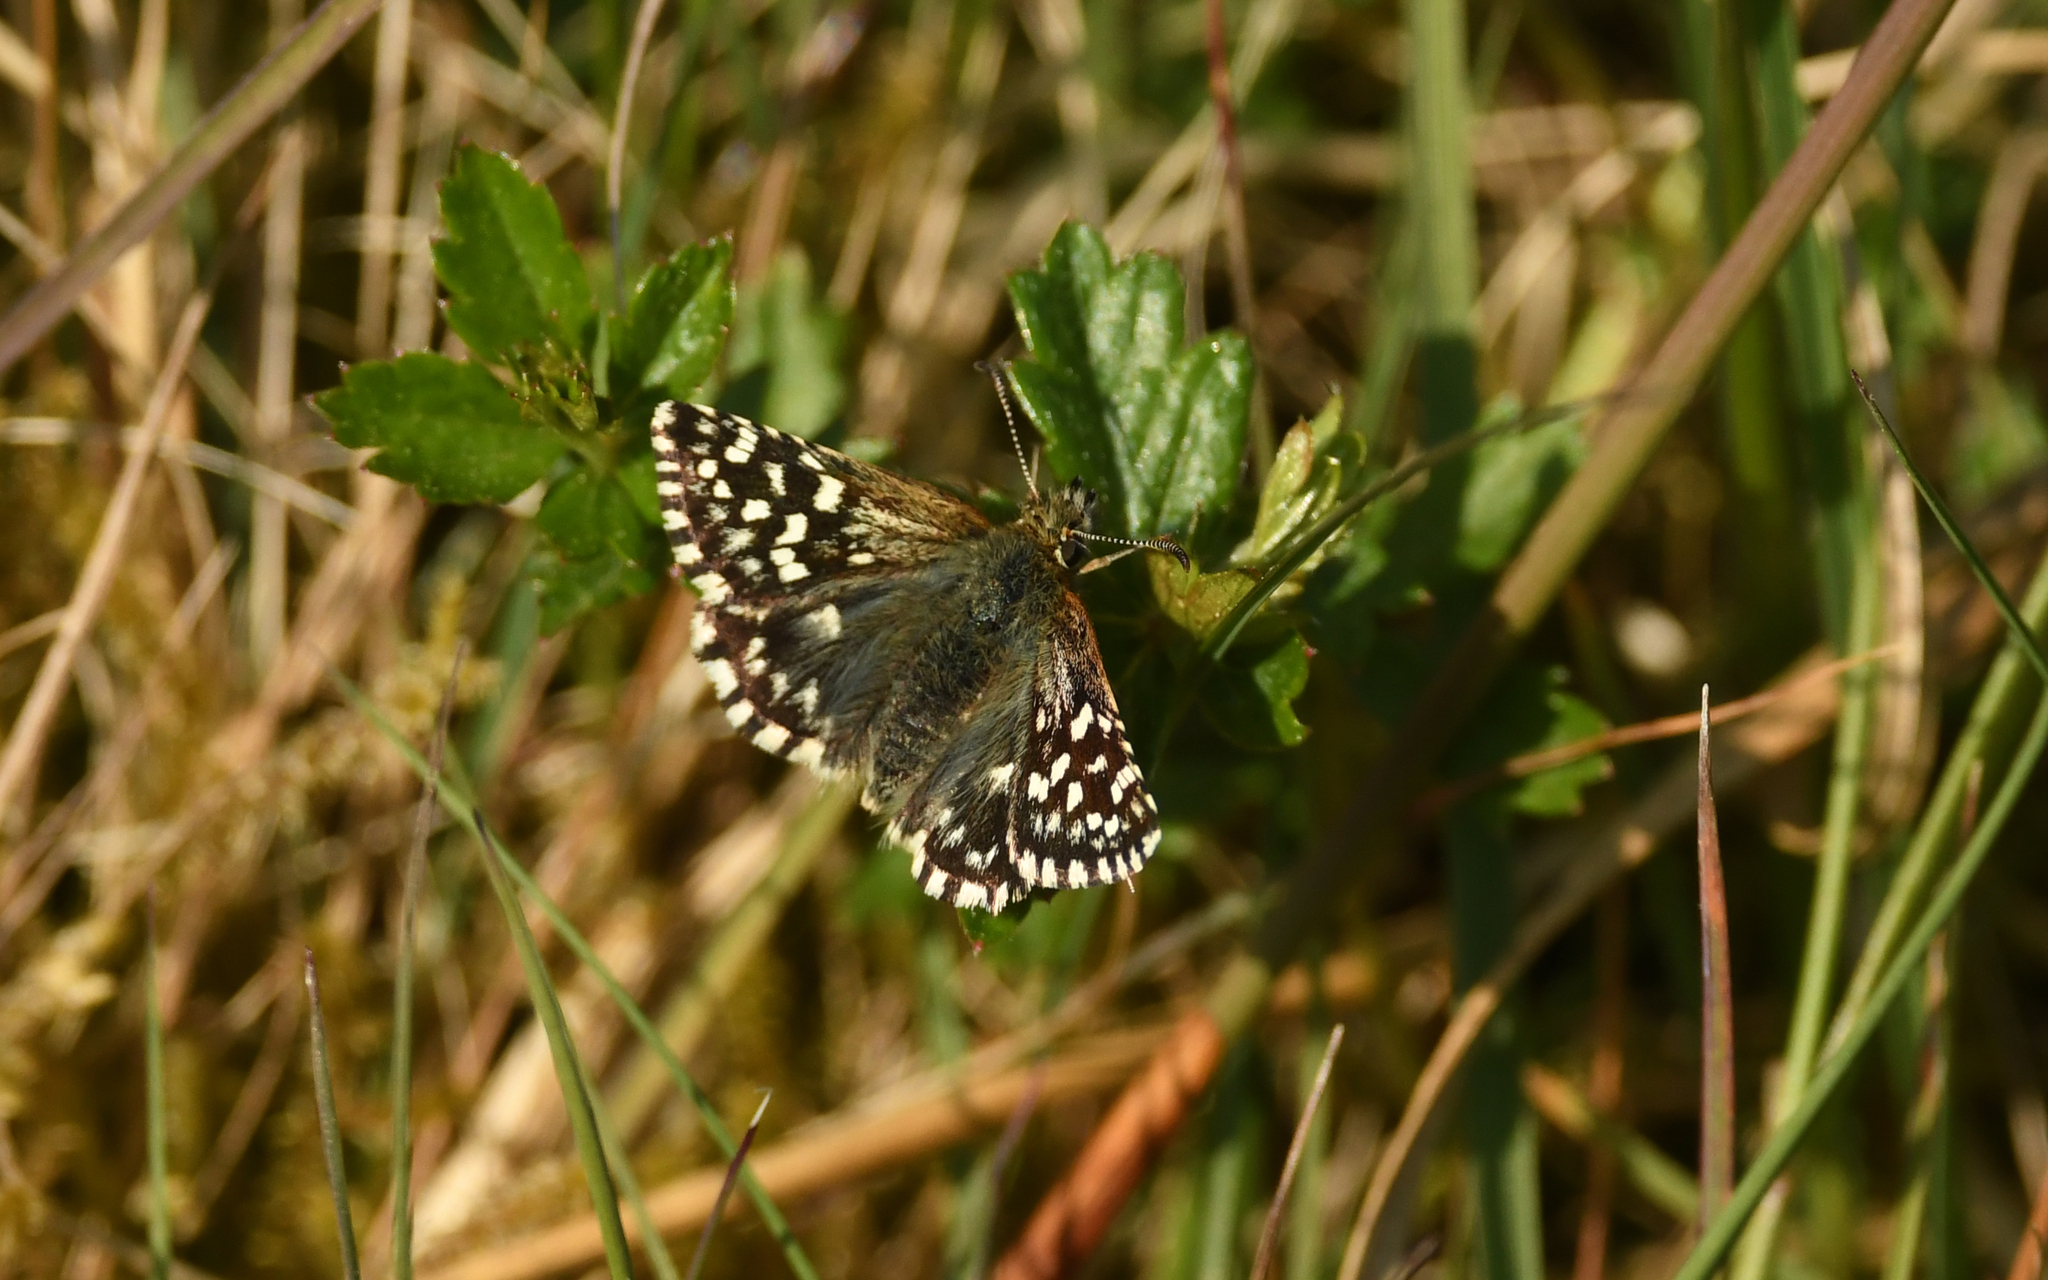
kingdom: Animalia
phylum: Arthropoda
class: Insecta
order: Lepidoptera
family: Hesperiidae
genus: Pyrgus
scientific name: Pyrgus malvae
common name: Grizzled skipper
